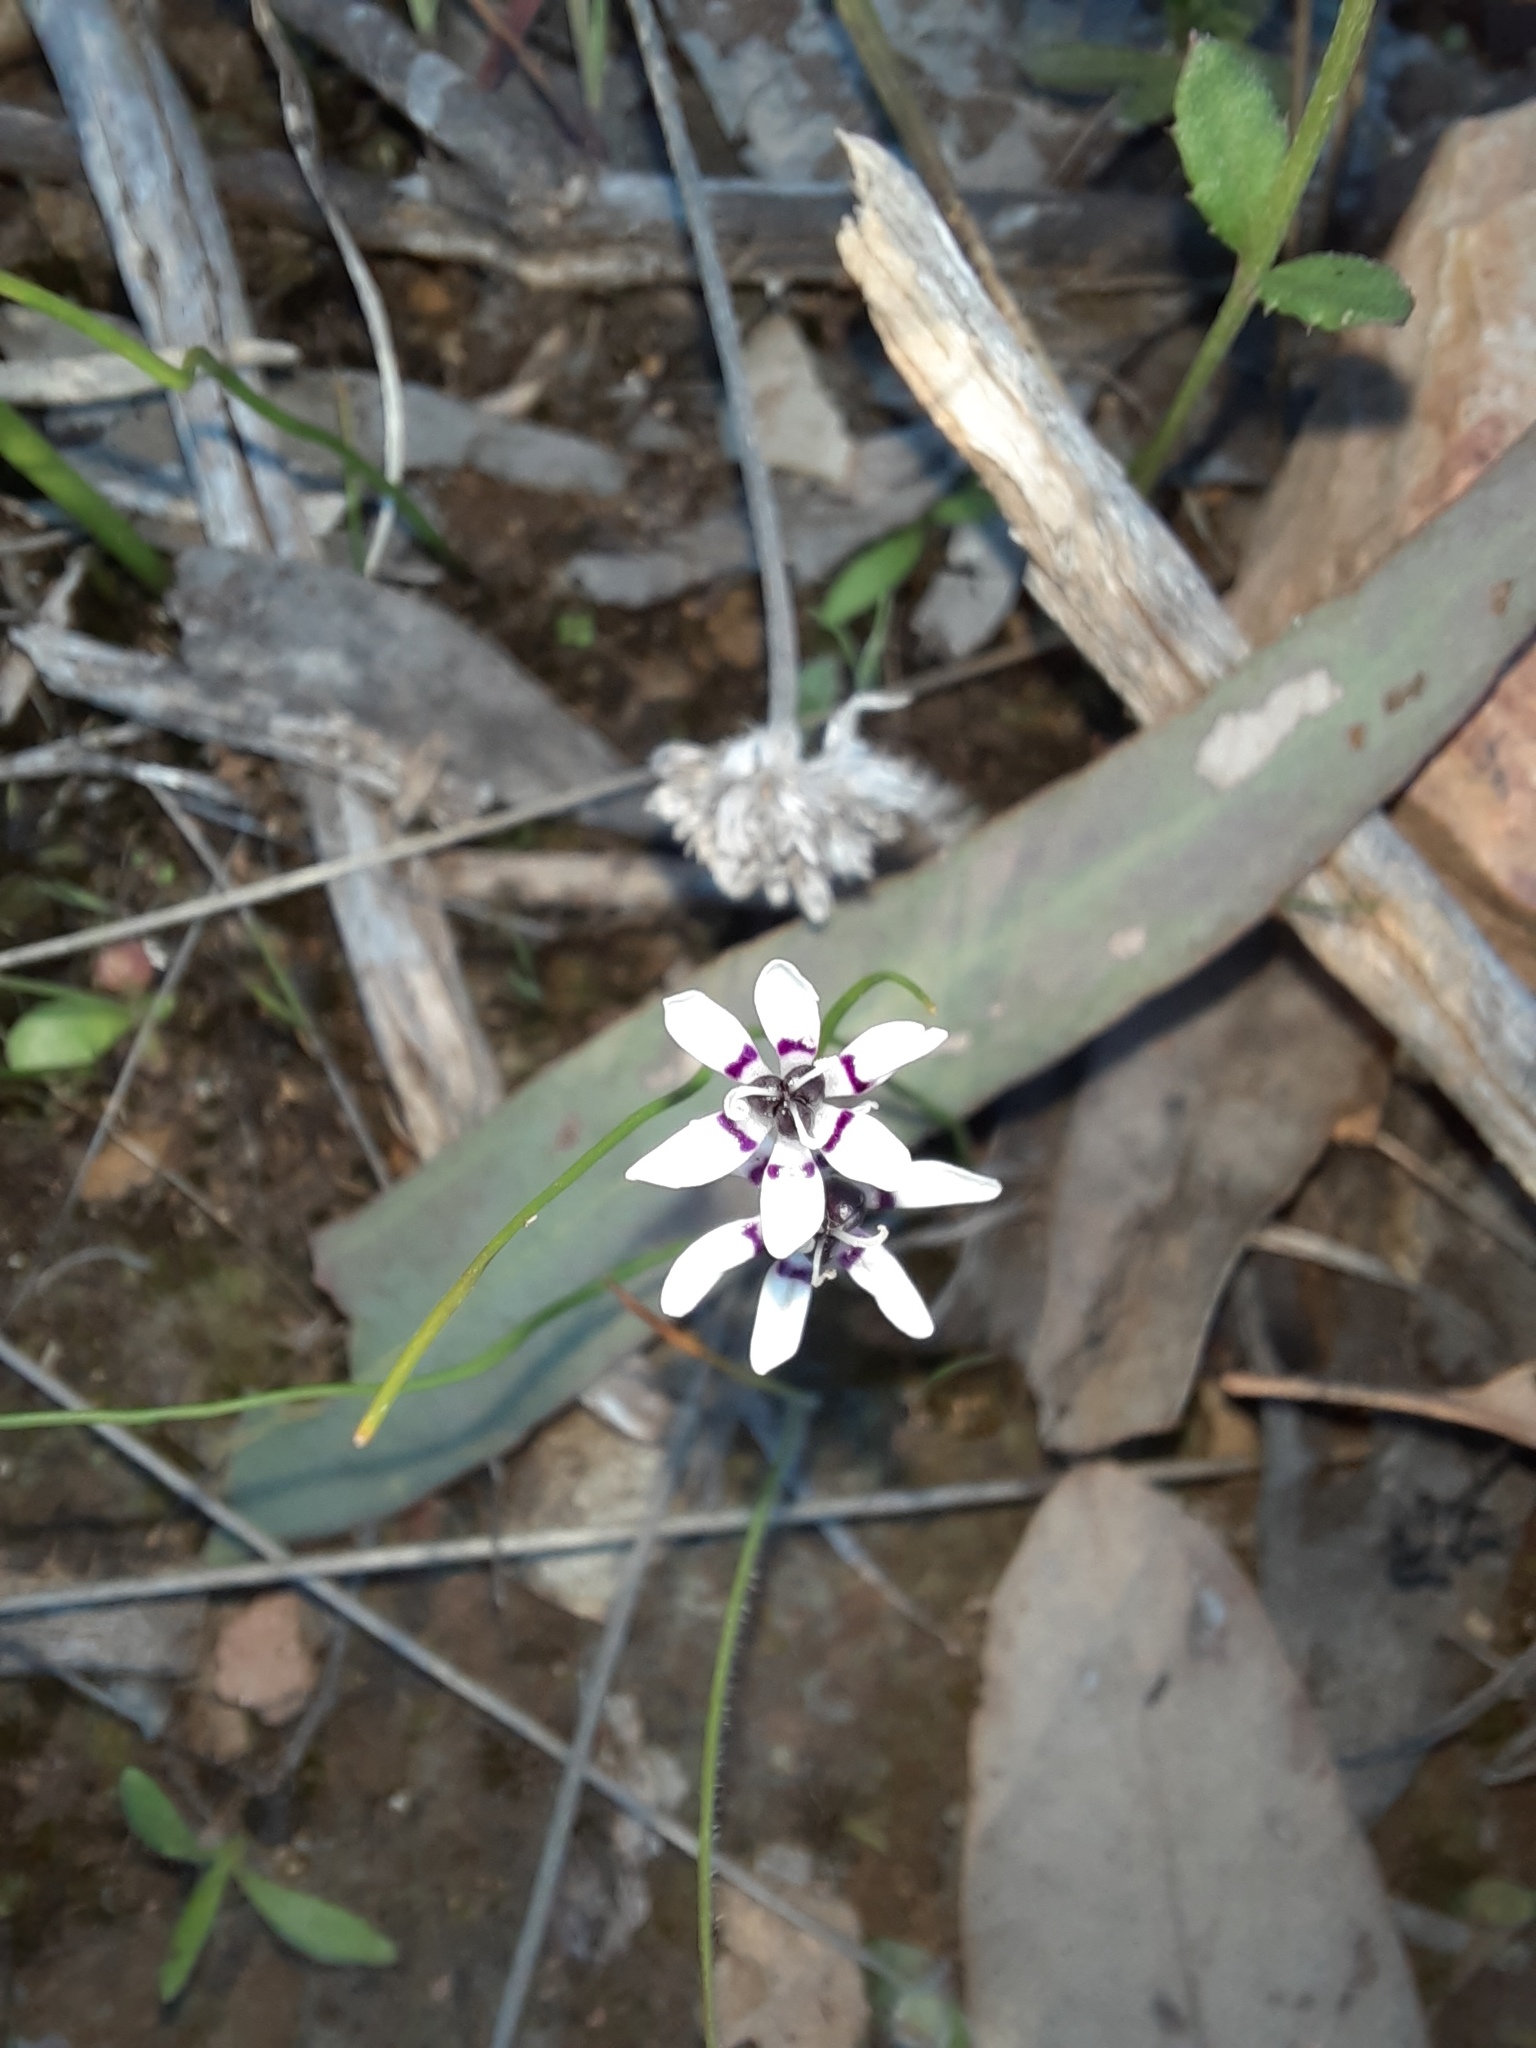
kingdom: Plantae
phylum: Tracheophyta
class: Liliopsida
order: Liliales
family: Colchicaceae
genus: Wurmbea
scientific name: Wurmbea dioica
